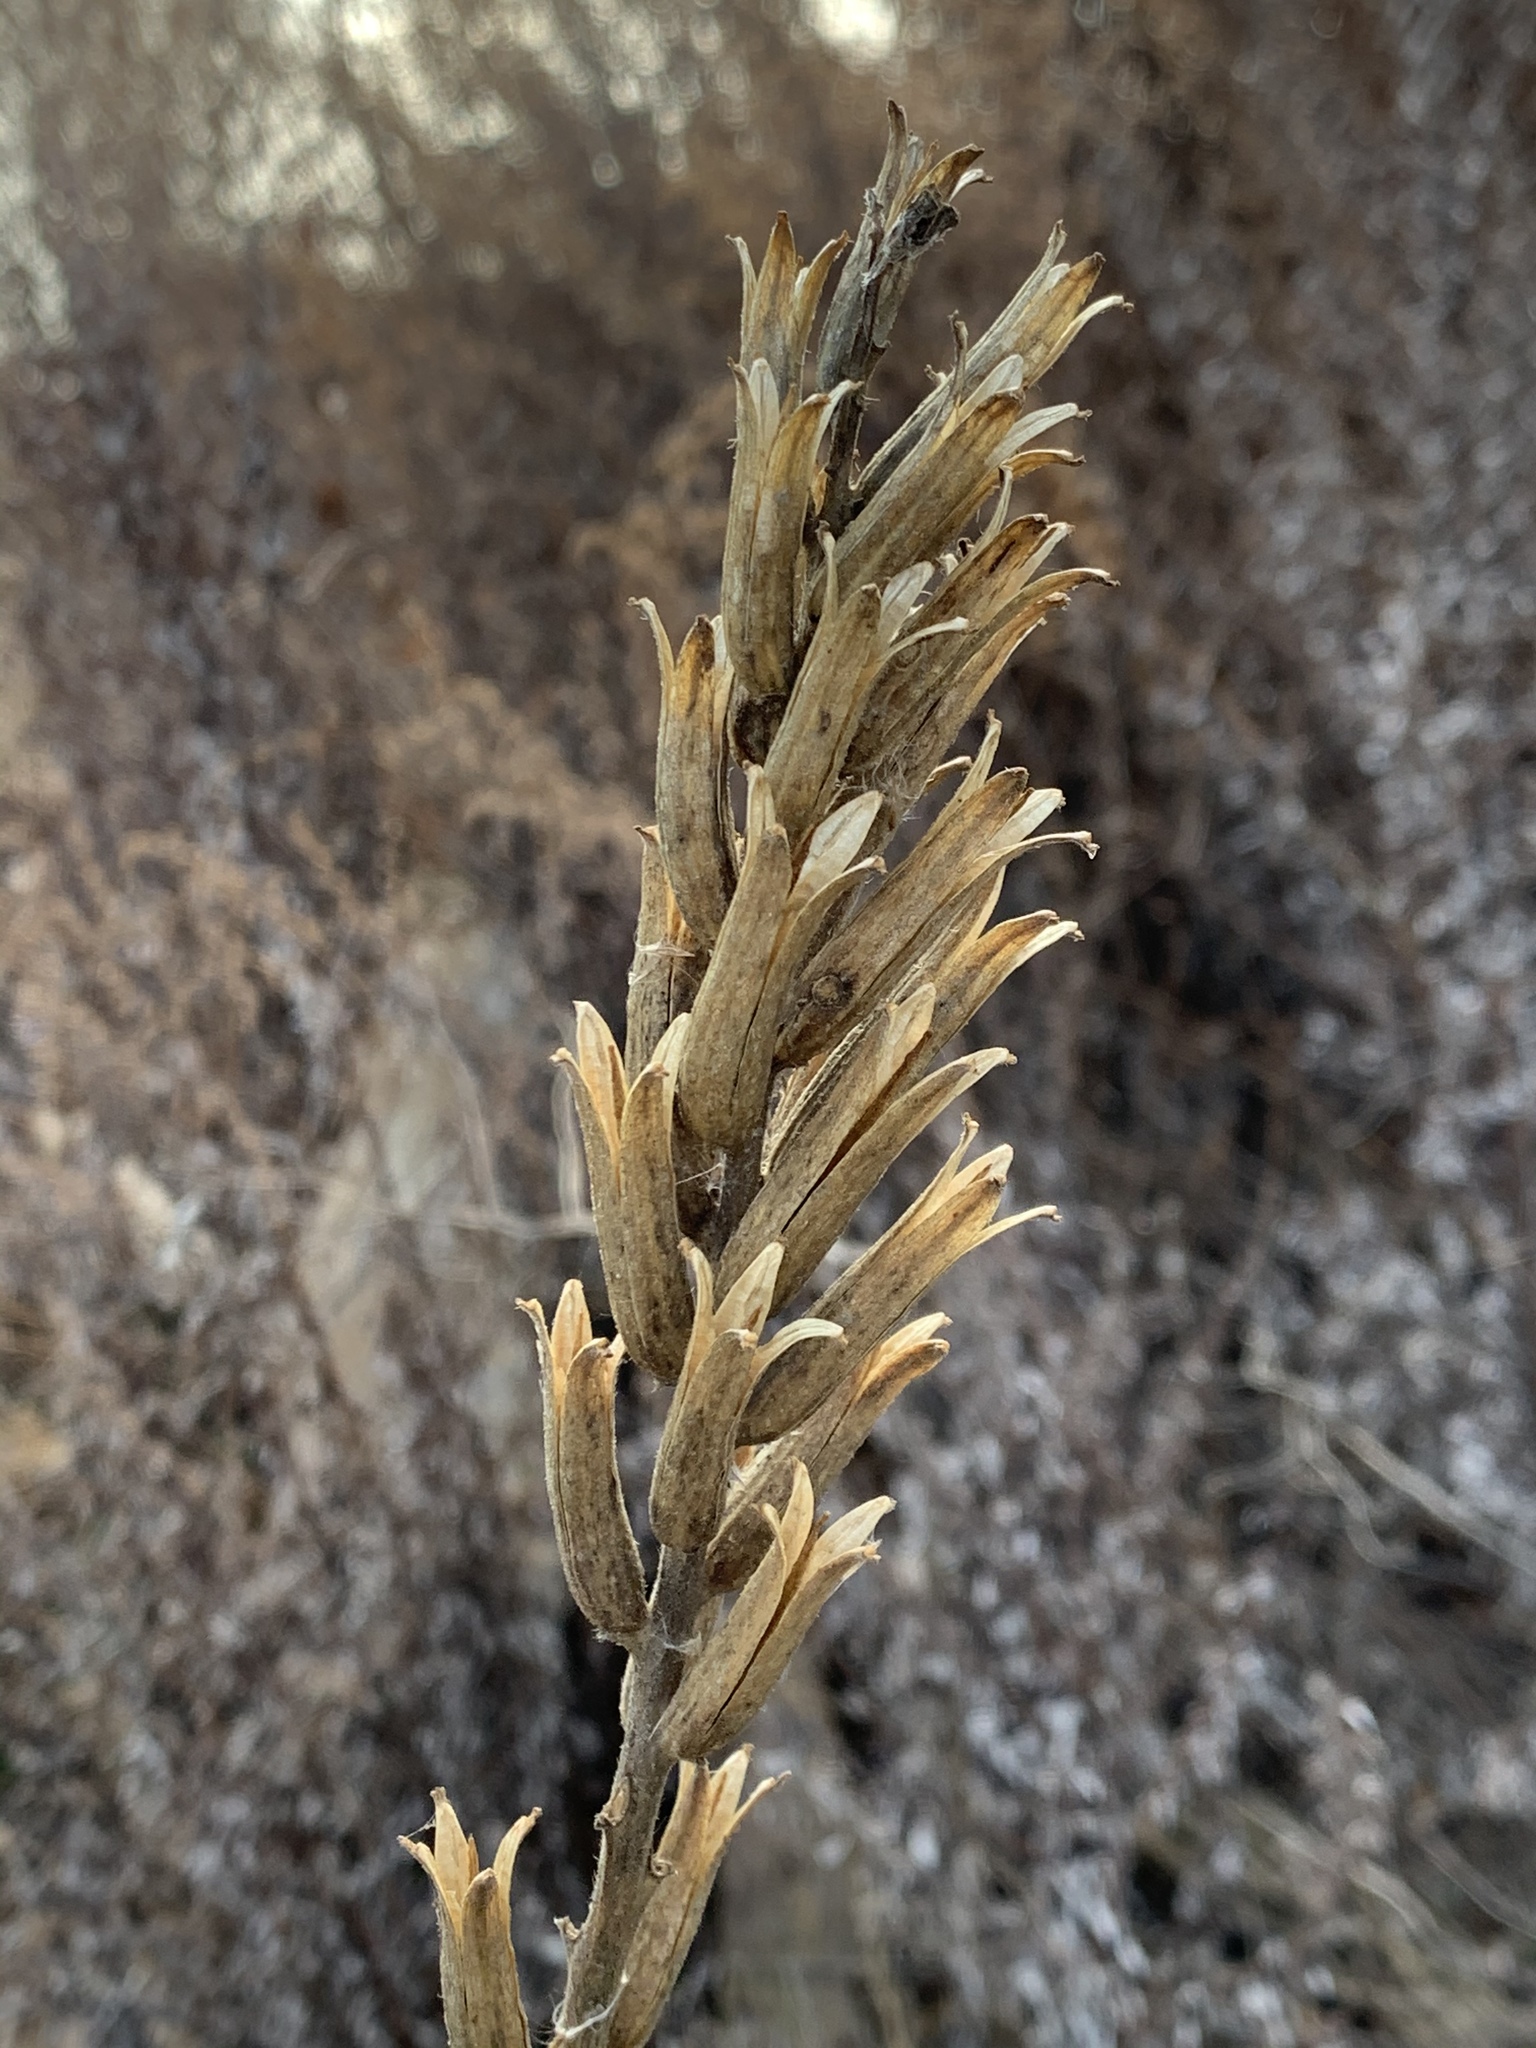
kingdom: Plantae
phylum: Tracheophyta
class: Magnoliopsida
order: Myrtales
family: Onagraceae
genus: Oenothera
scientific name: Oenothera biennis
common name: Common evening-primrose
